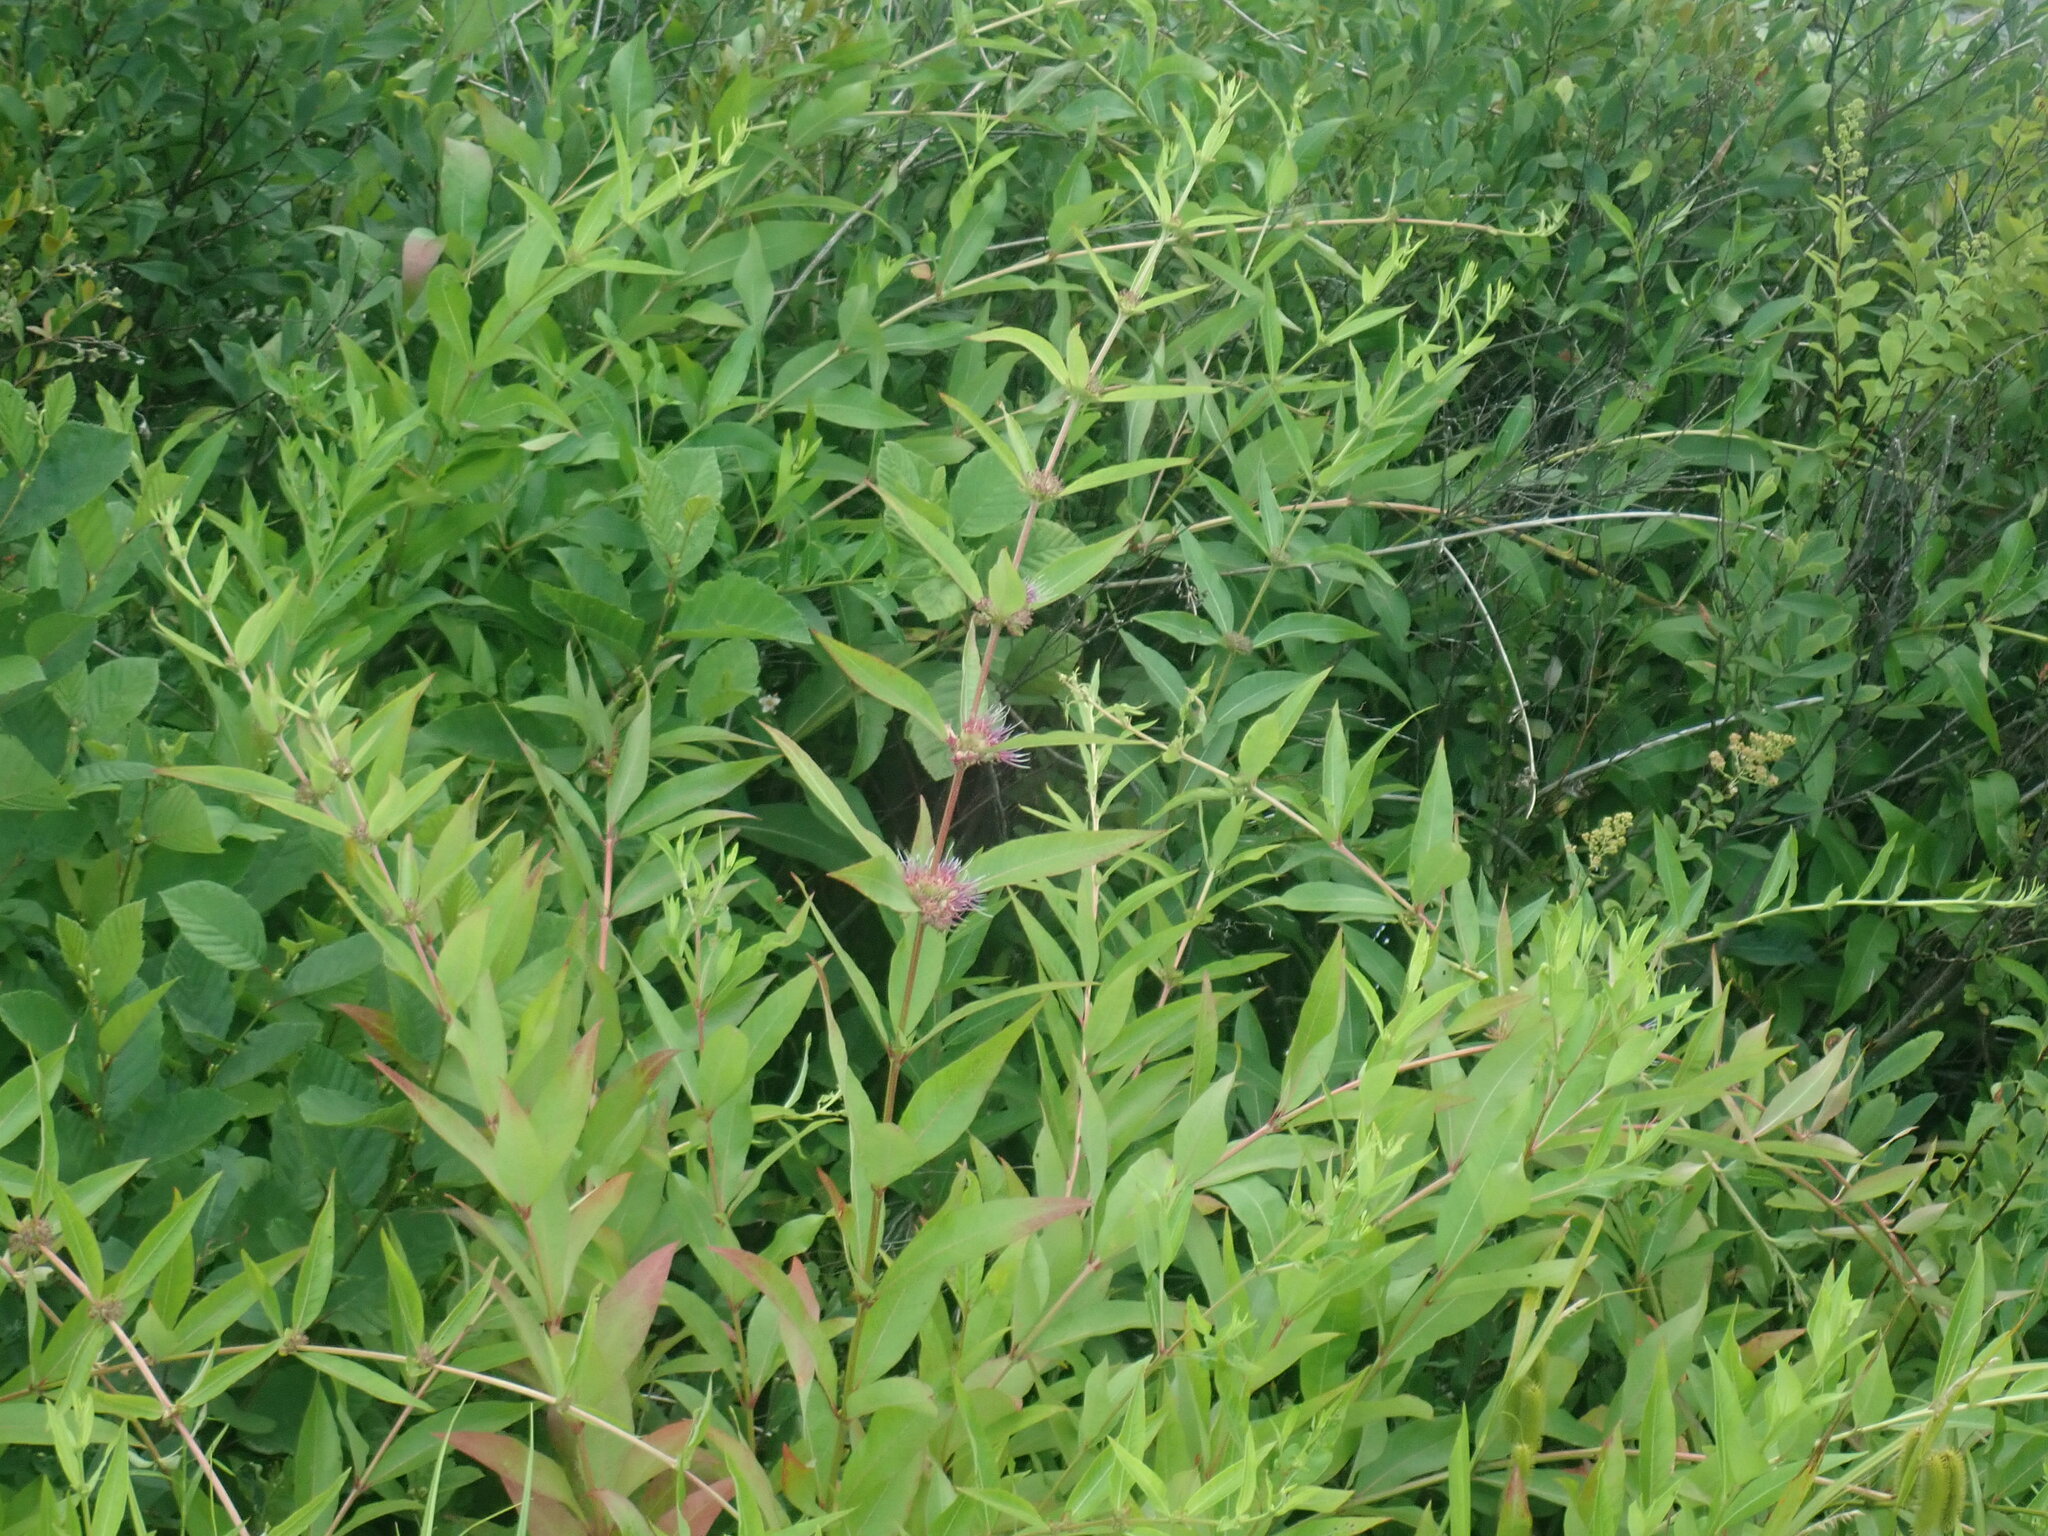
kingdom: Plantae
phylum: Tracheophyta
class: Magnoliopsida
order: Myrtales
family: Lythraceae
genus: Decodon
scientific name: Decodon verticillatus
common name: Hairy swamp loosestrife
